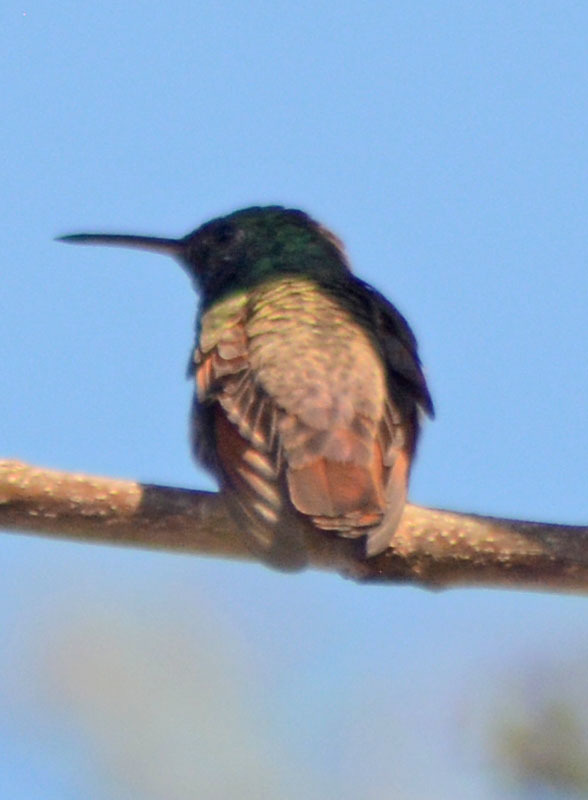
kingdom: Animalia
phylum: Chordata
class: Aves
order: Apodiformes
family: Trochilidae
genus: Saucerottia
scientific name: Saucerottia beryllina
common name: Berylline hummingbird
